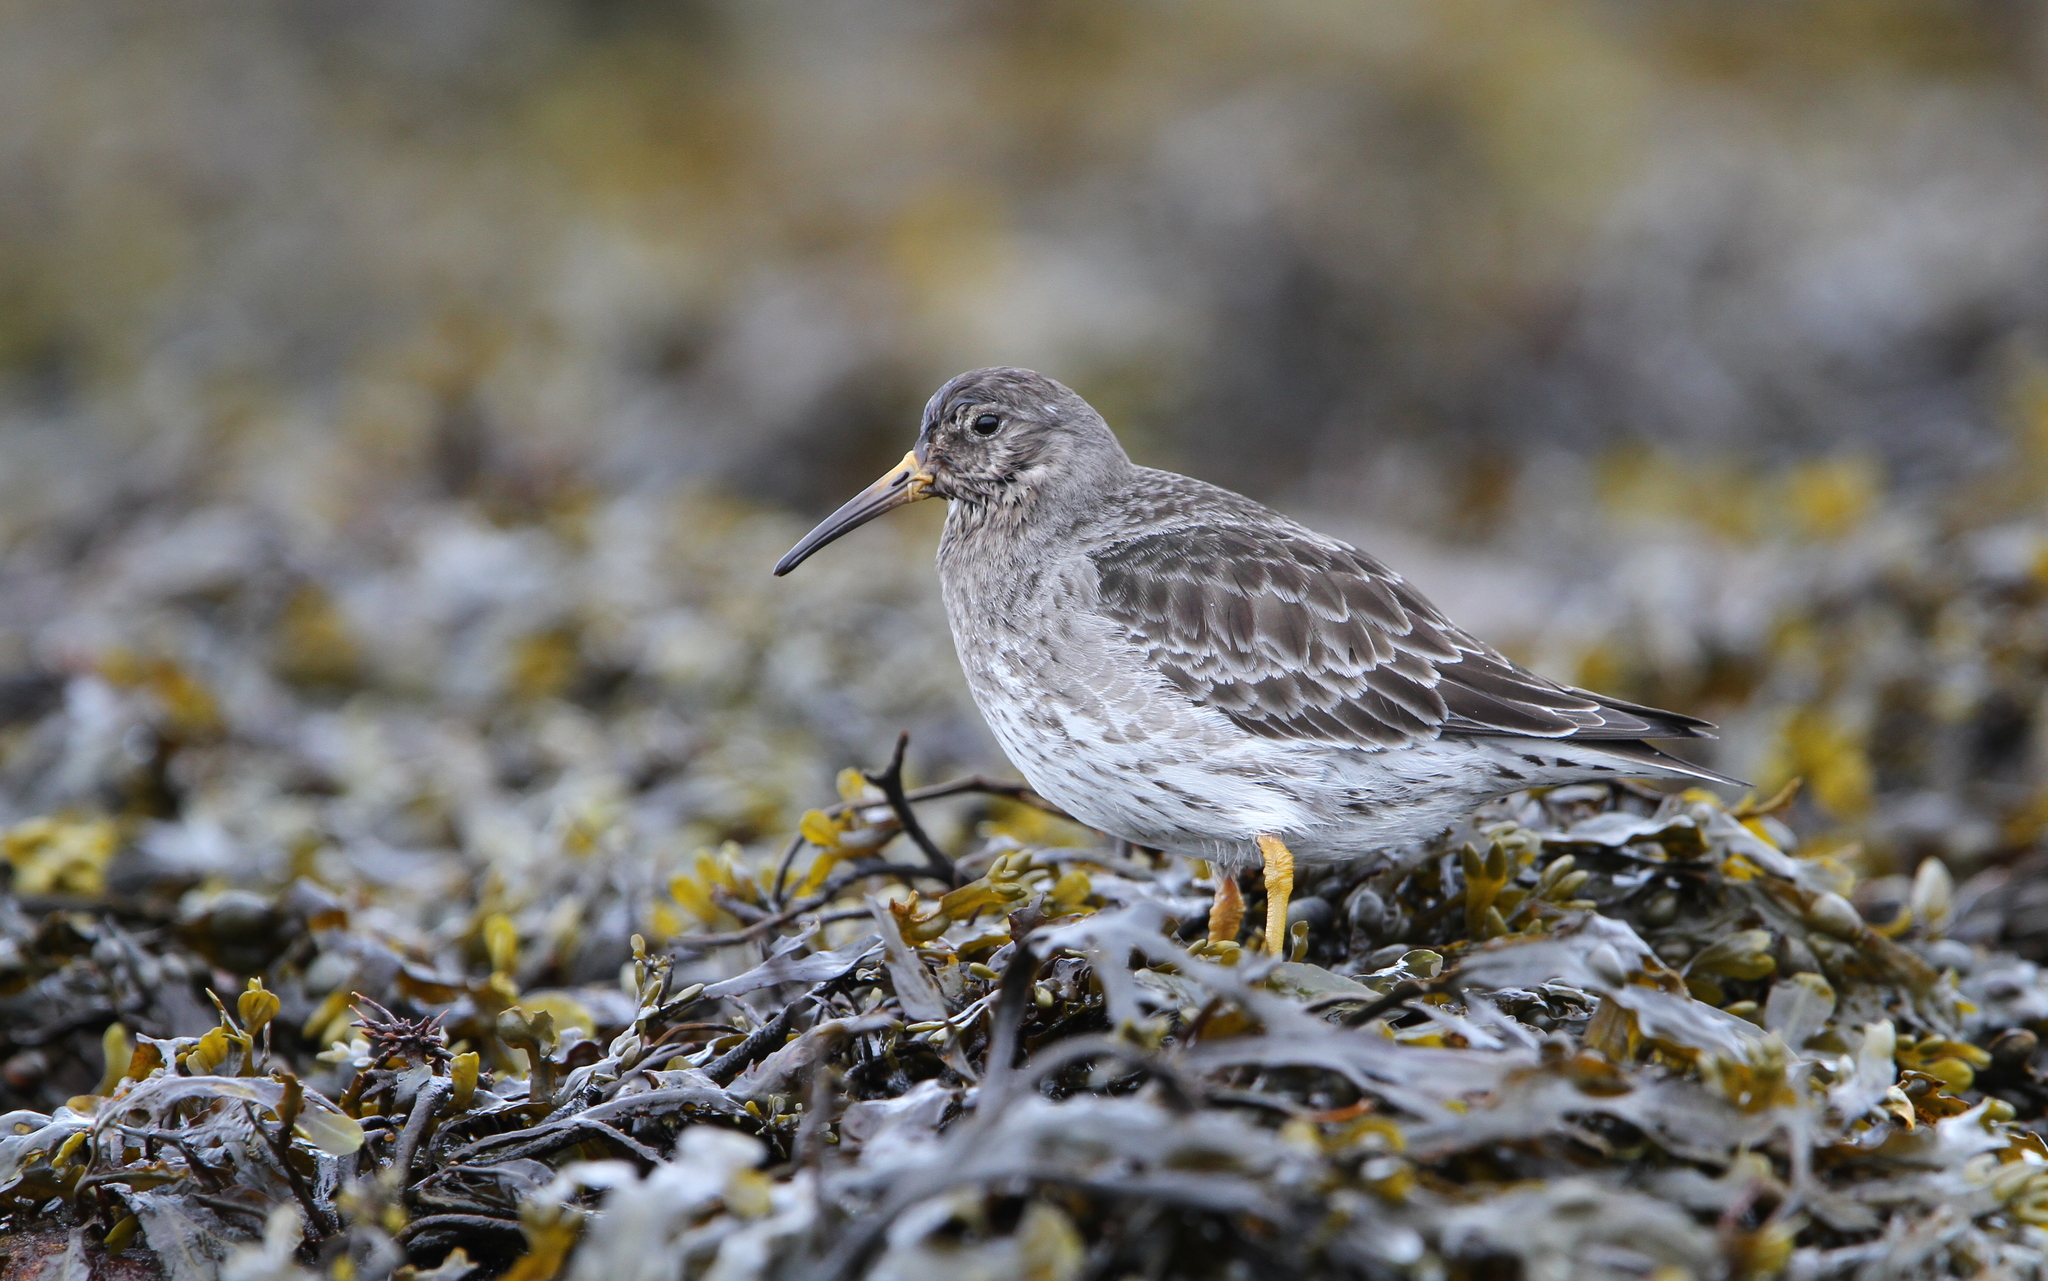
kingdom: Animalia
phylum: Chordata
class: Aves
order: Charadriiformes
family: Scolopacidae
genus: Calidris
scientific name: Calidris maritima
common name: Purple sandpiper
